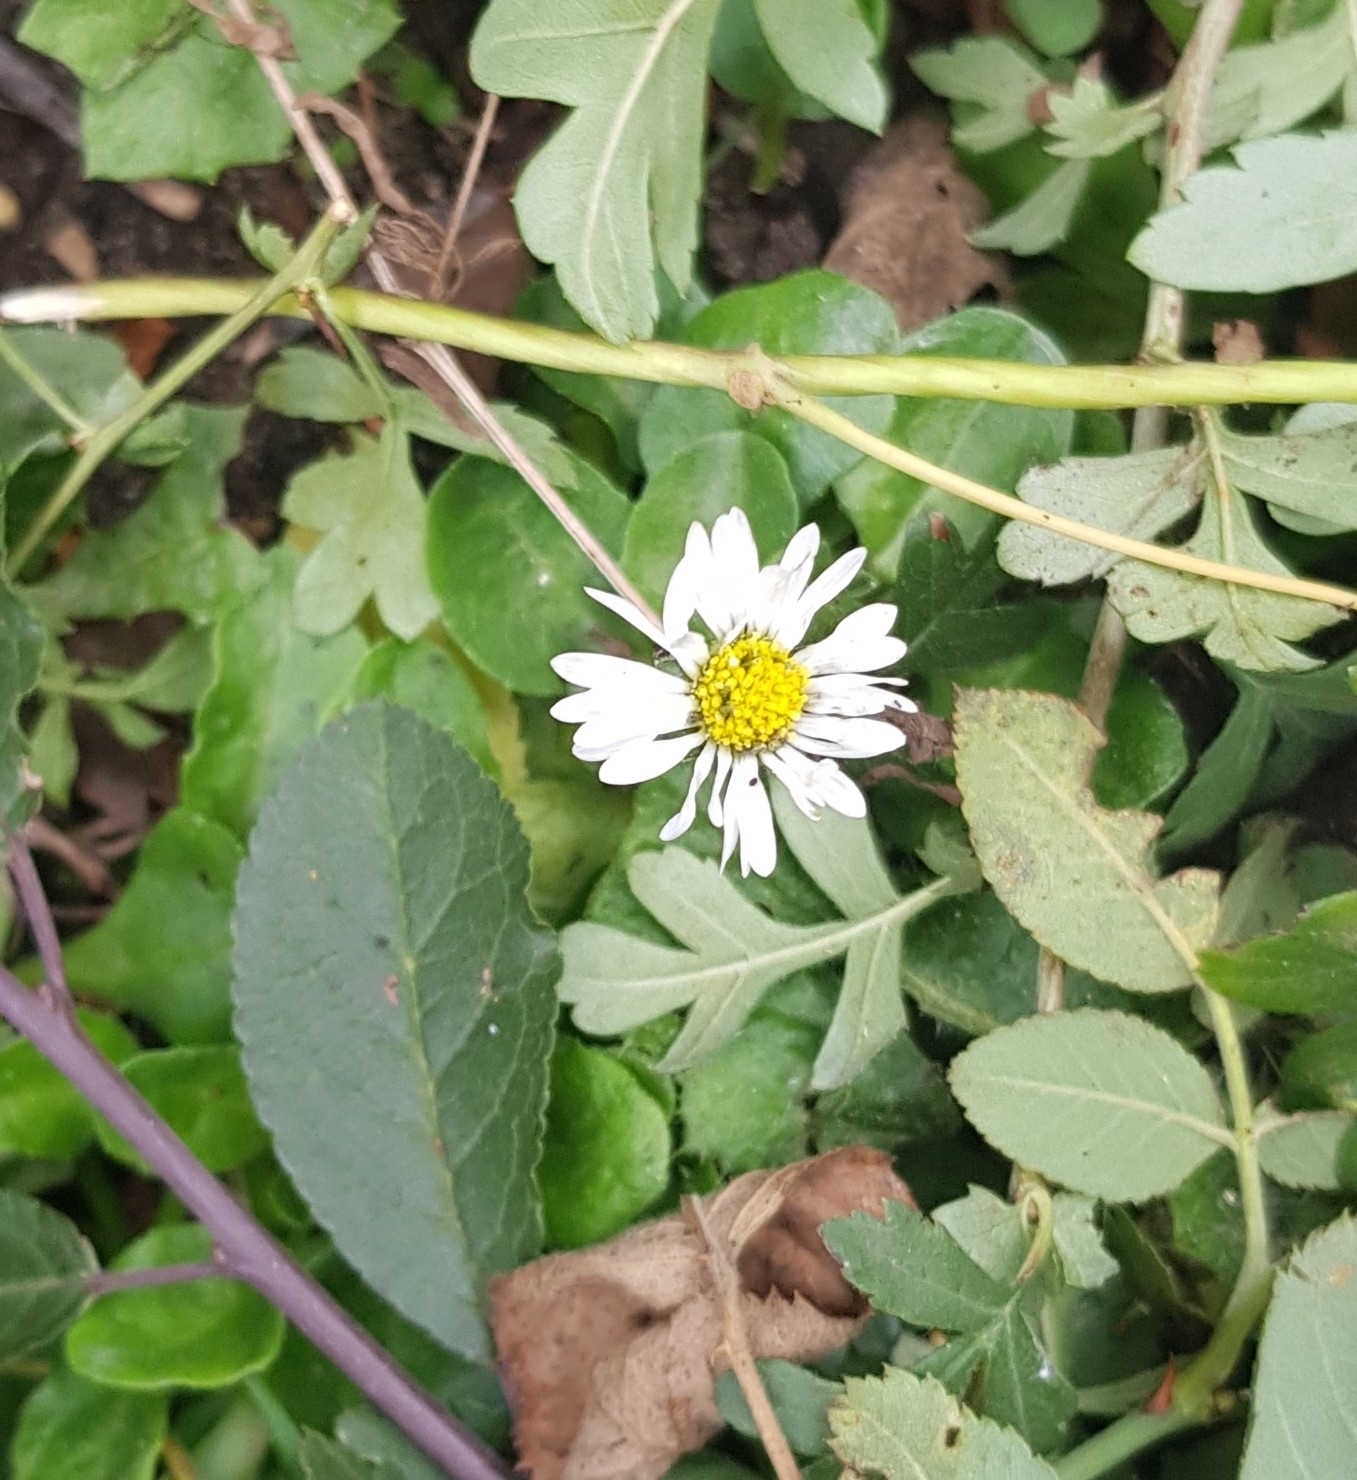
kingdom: Plantae
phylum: Tracheophyta
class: Magnoliopsida
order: Asterales
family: Asteraceae
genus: Bellis
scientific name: Bellis perennis
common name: Lawndaisy
